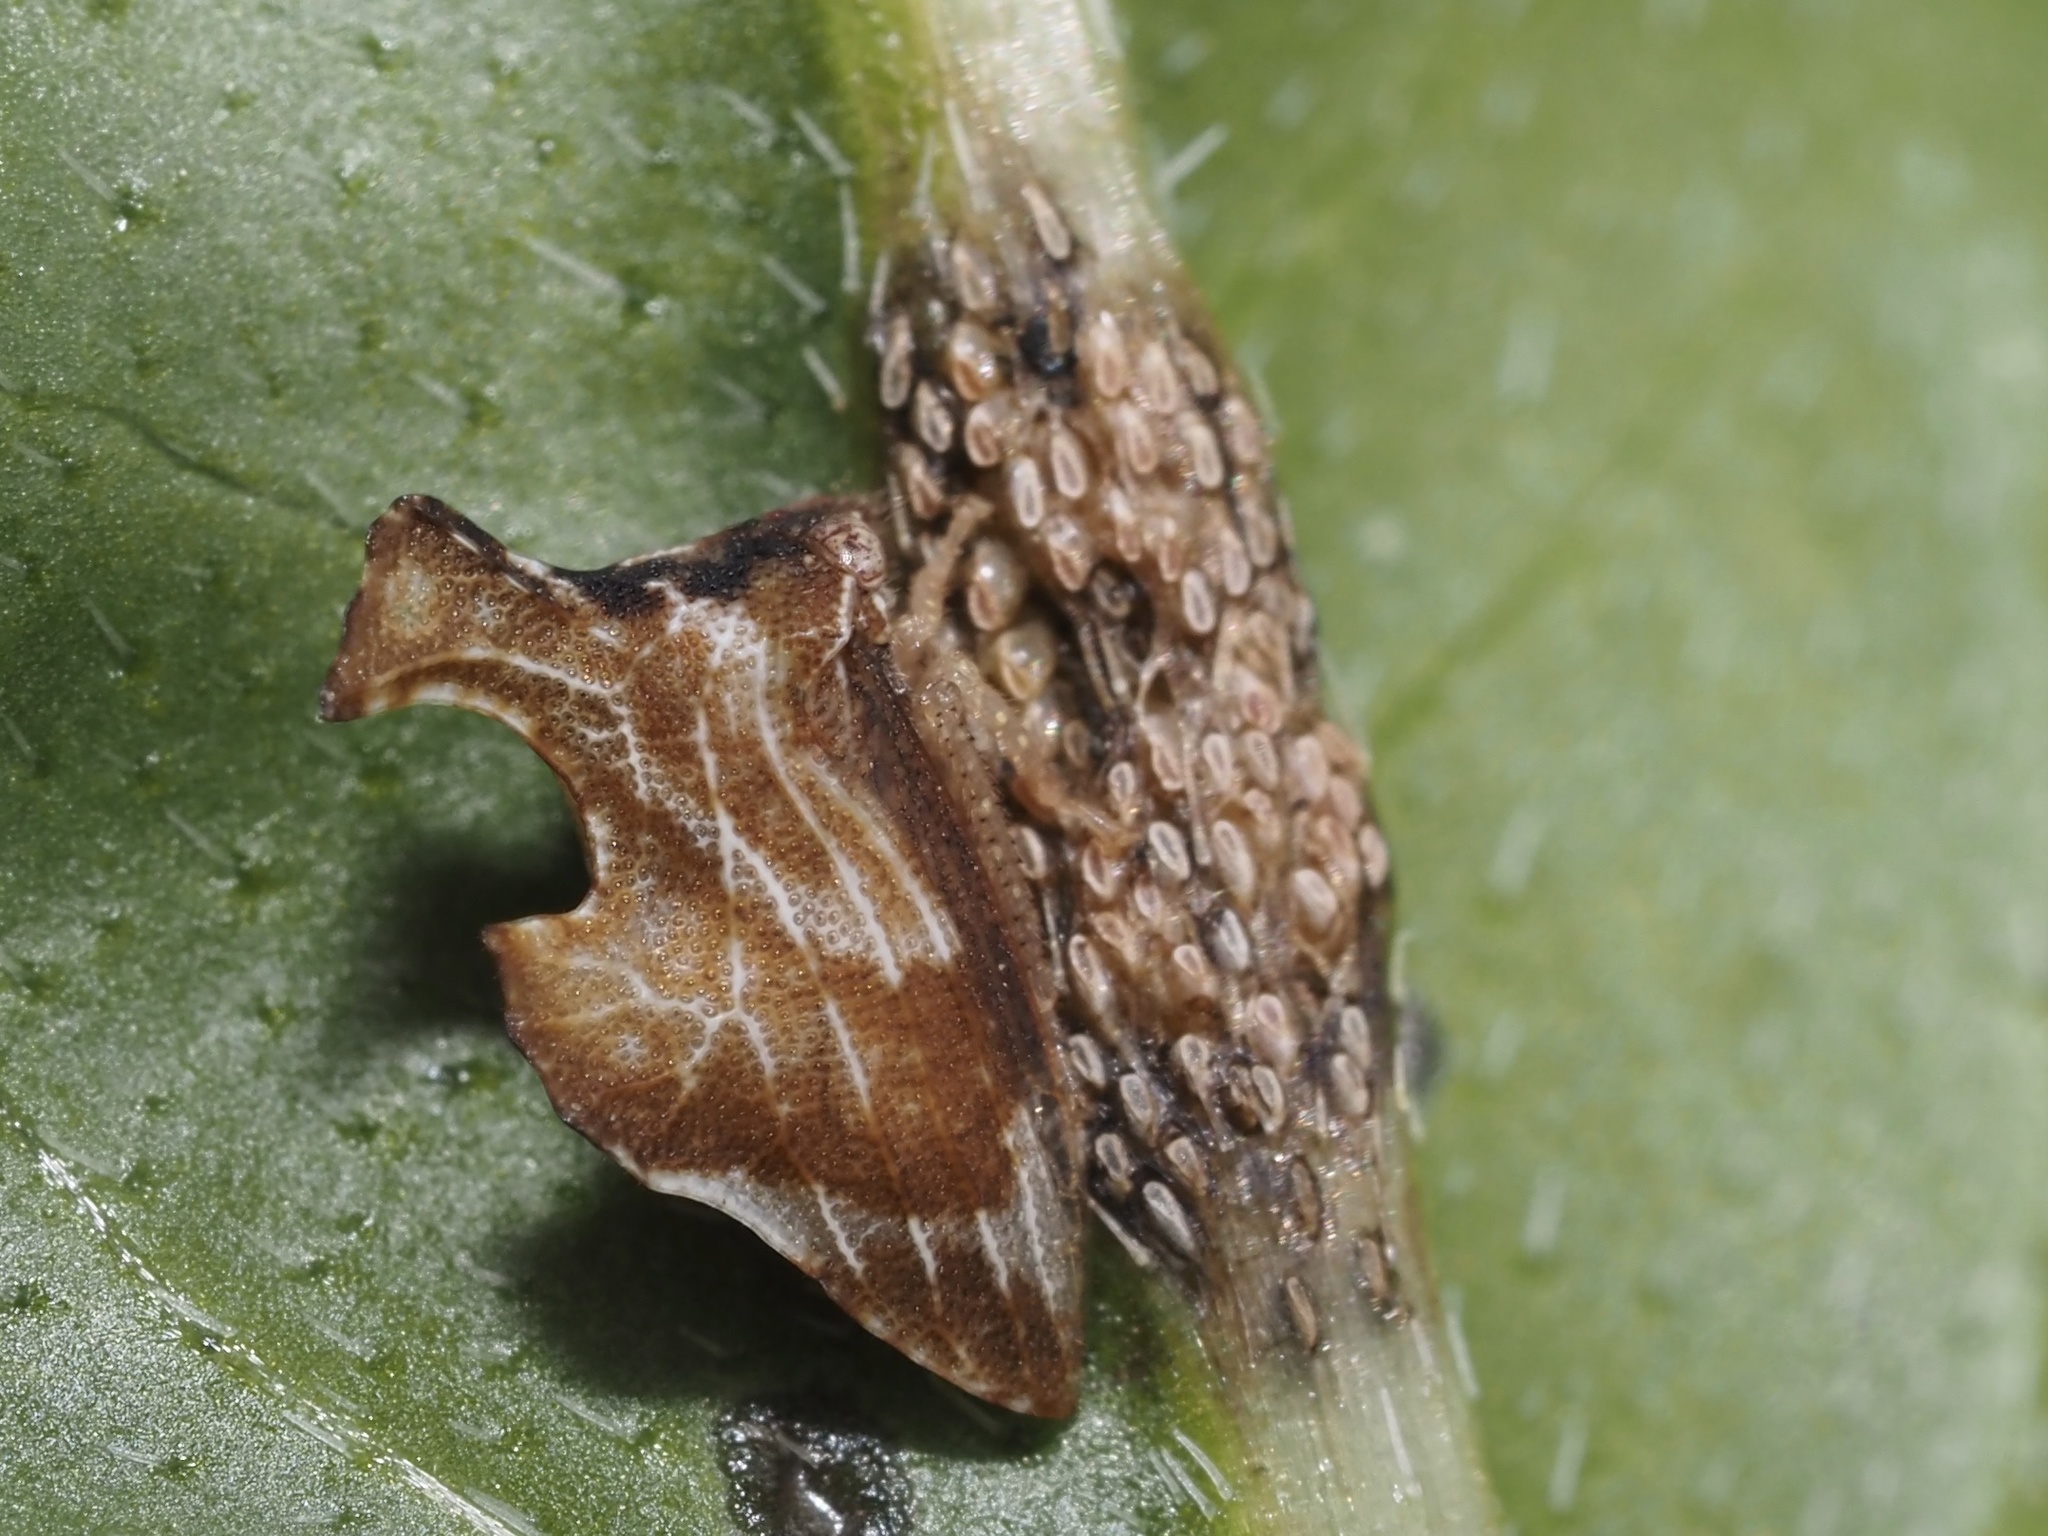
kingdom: Animalia
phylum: Arthropoda
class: Insecta
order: Hemiptera
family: Membracidae
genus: Entylia
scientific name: Entylia carinata
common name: Keeled treehopper
